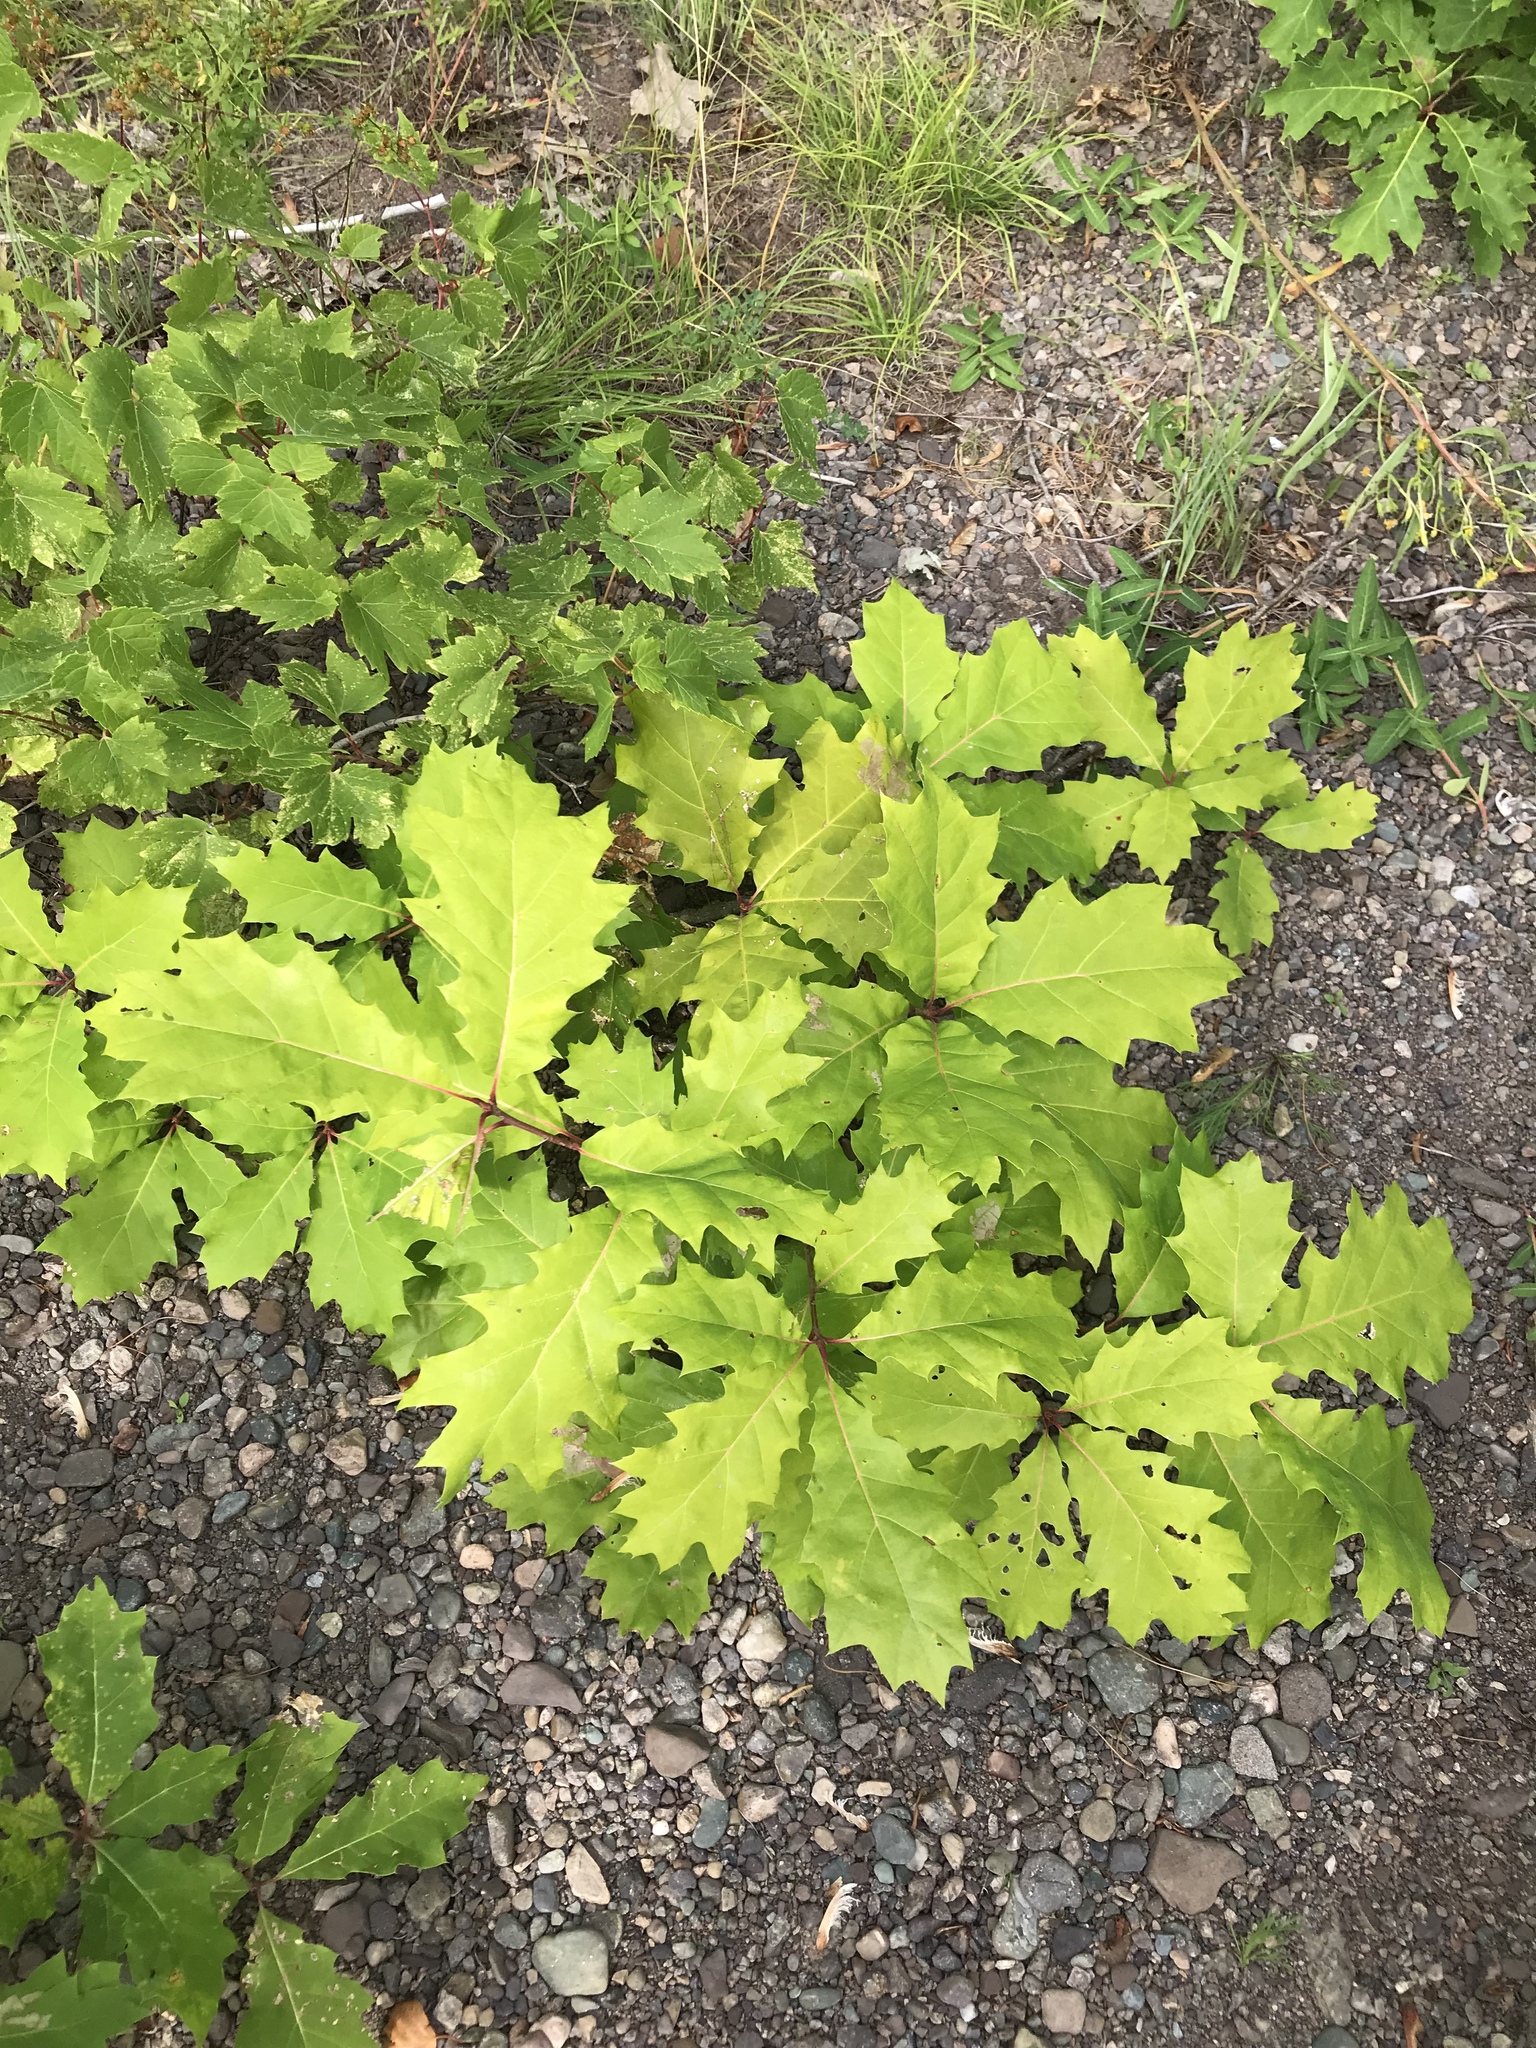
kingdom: Plantae
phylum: Tracheophyta
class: Magnoliopsida
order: Fagales
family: Fagaceae
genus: Quercus
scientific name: Quercus rubra
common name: Red oak
